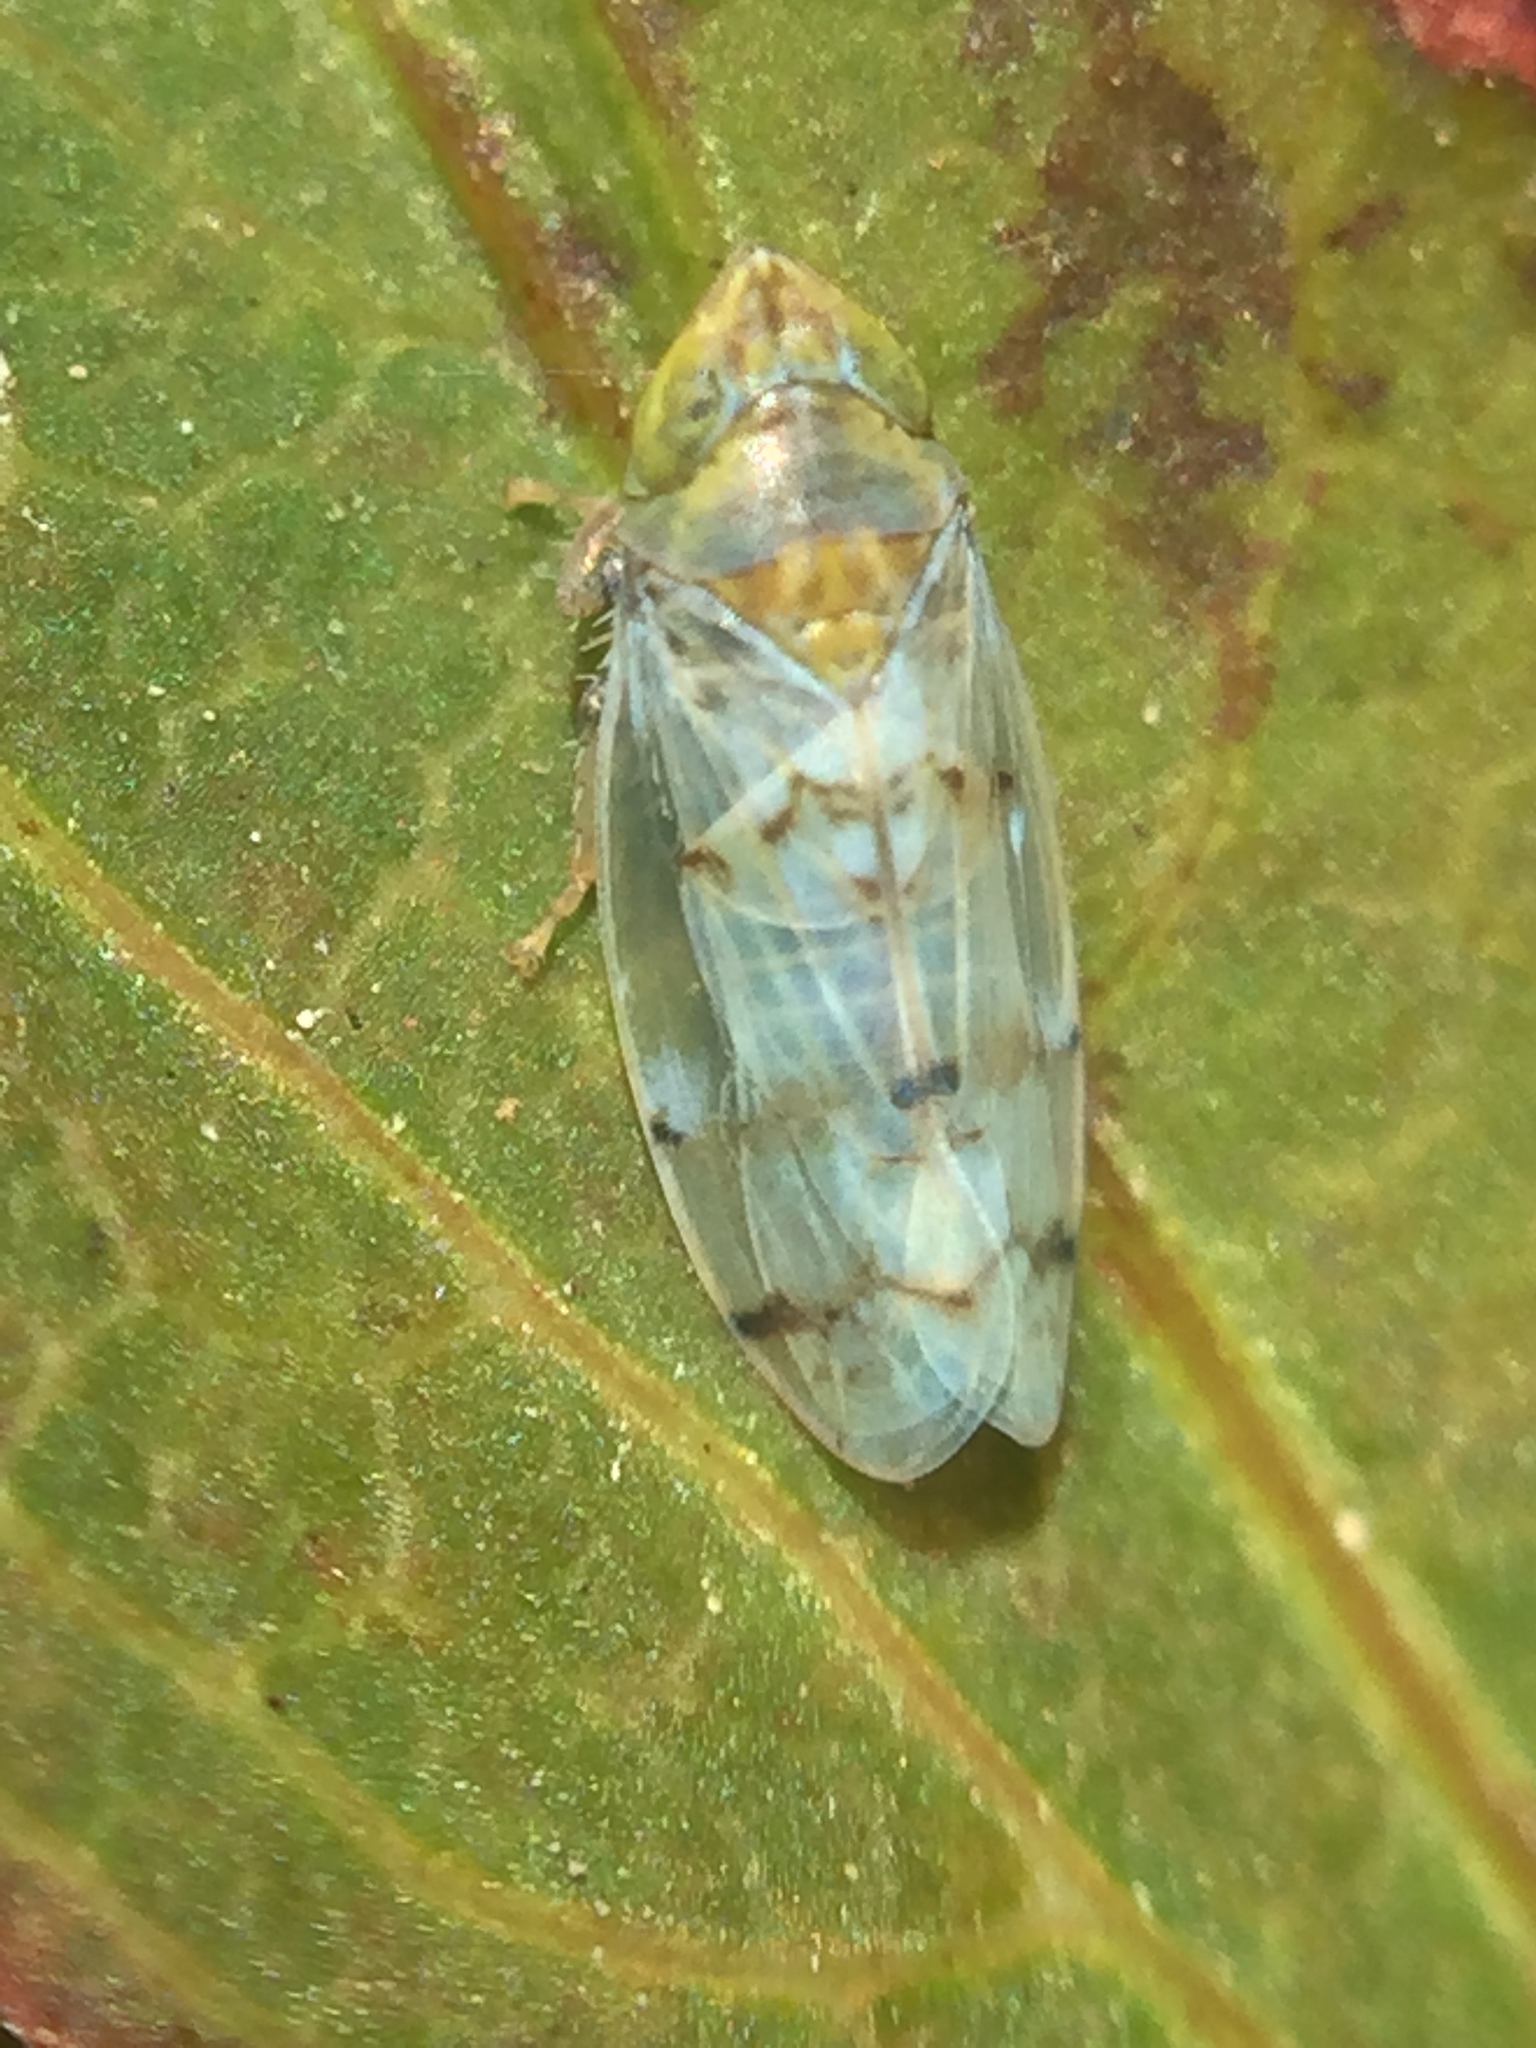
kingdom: Animalia
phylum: Arthropoda
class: Insecta
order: Hemiptera
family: Cicadellidae
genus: Japananus
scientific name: Japananus hyalinus
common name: The japanese maple leafhopper
